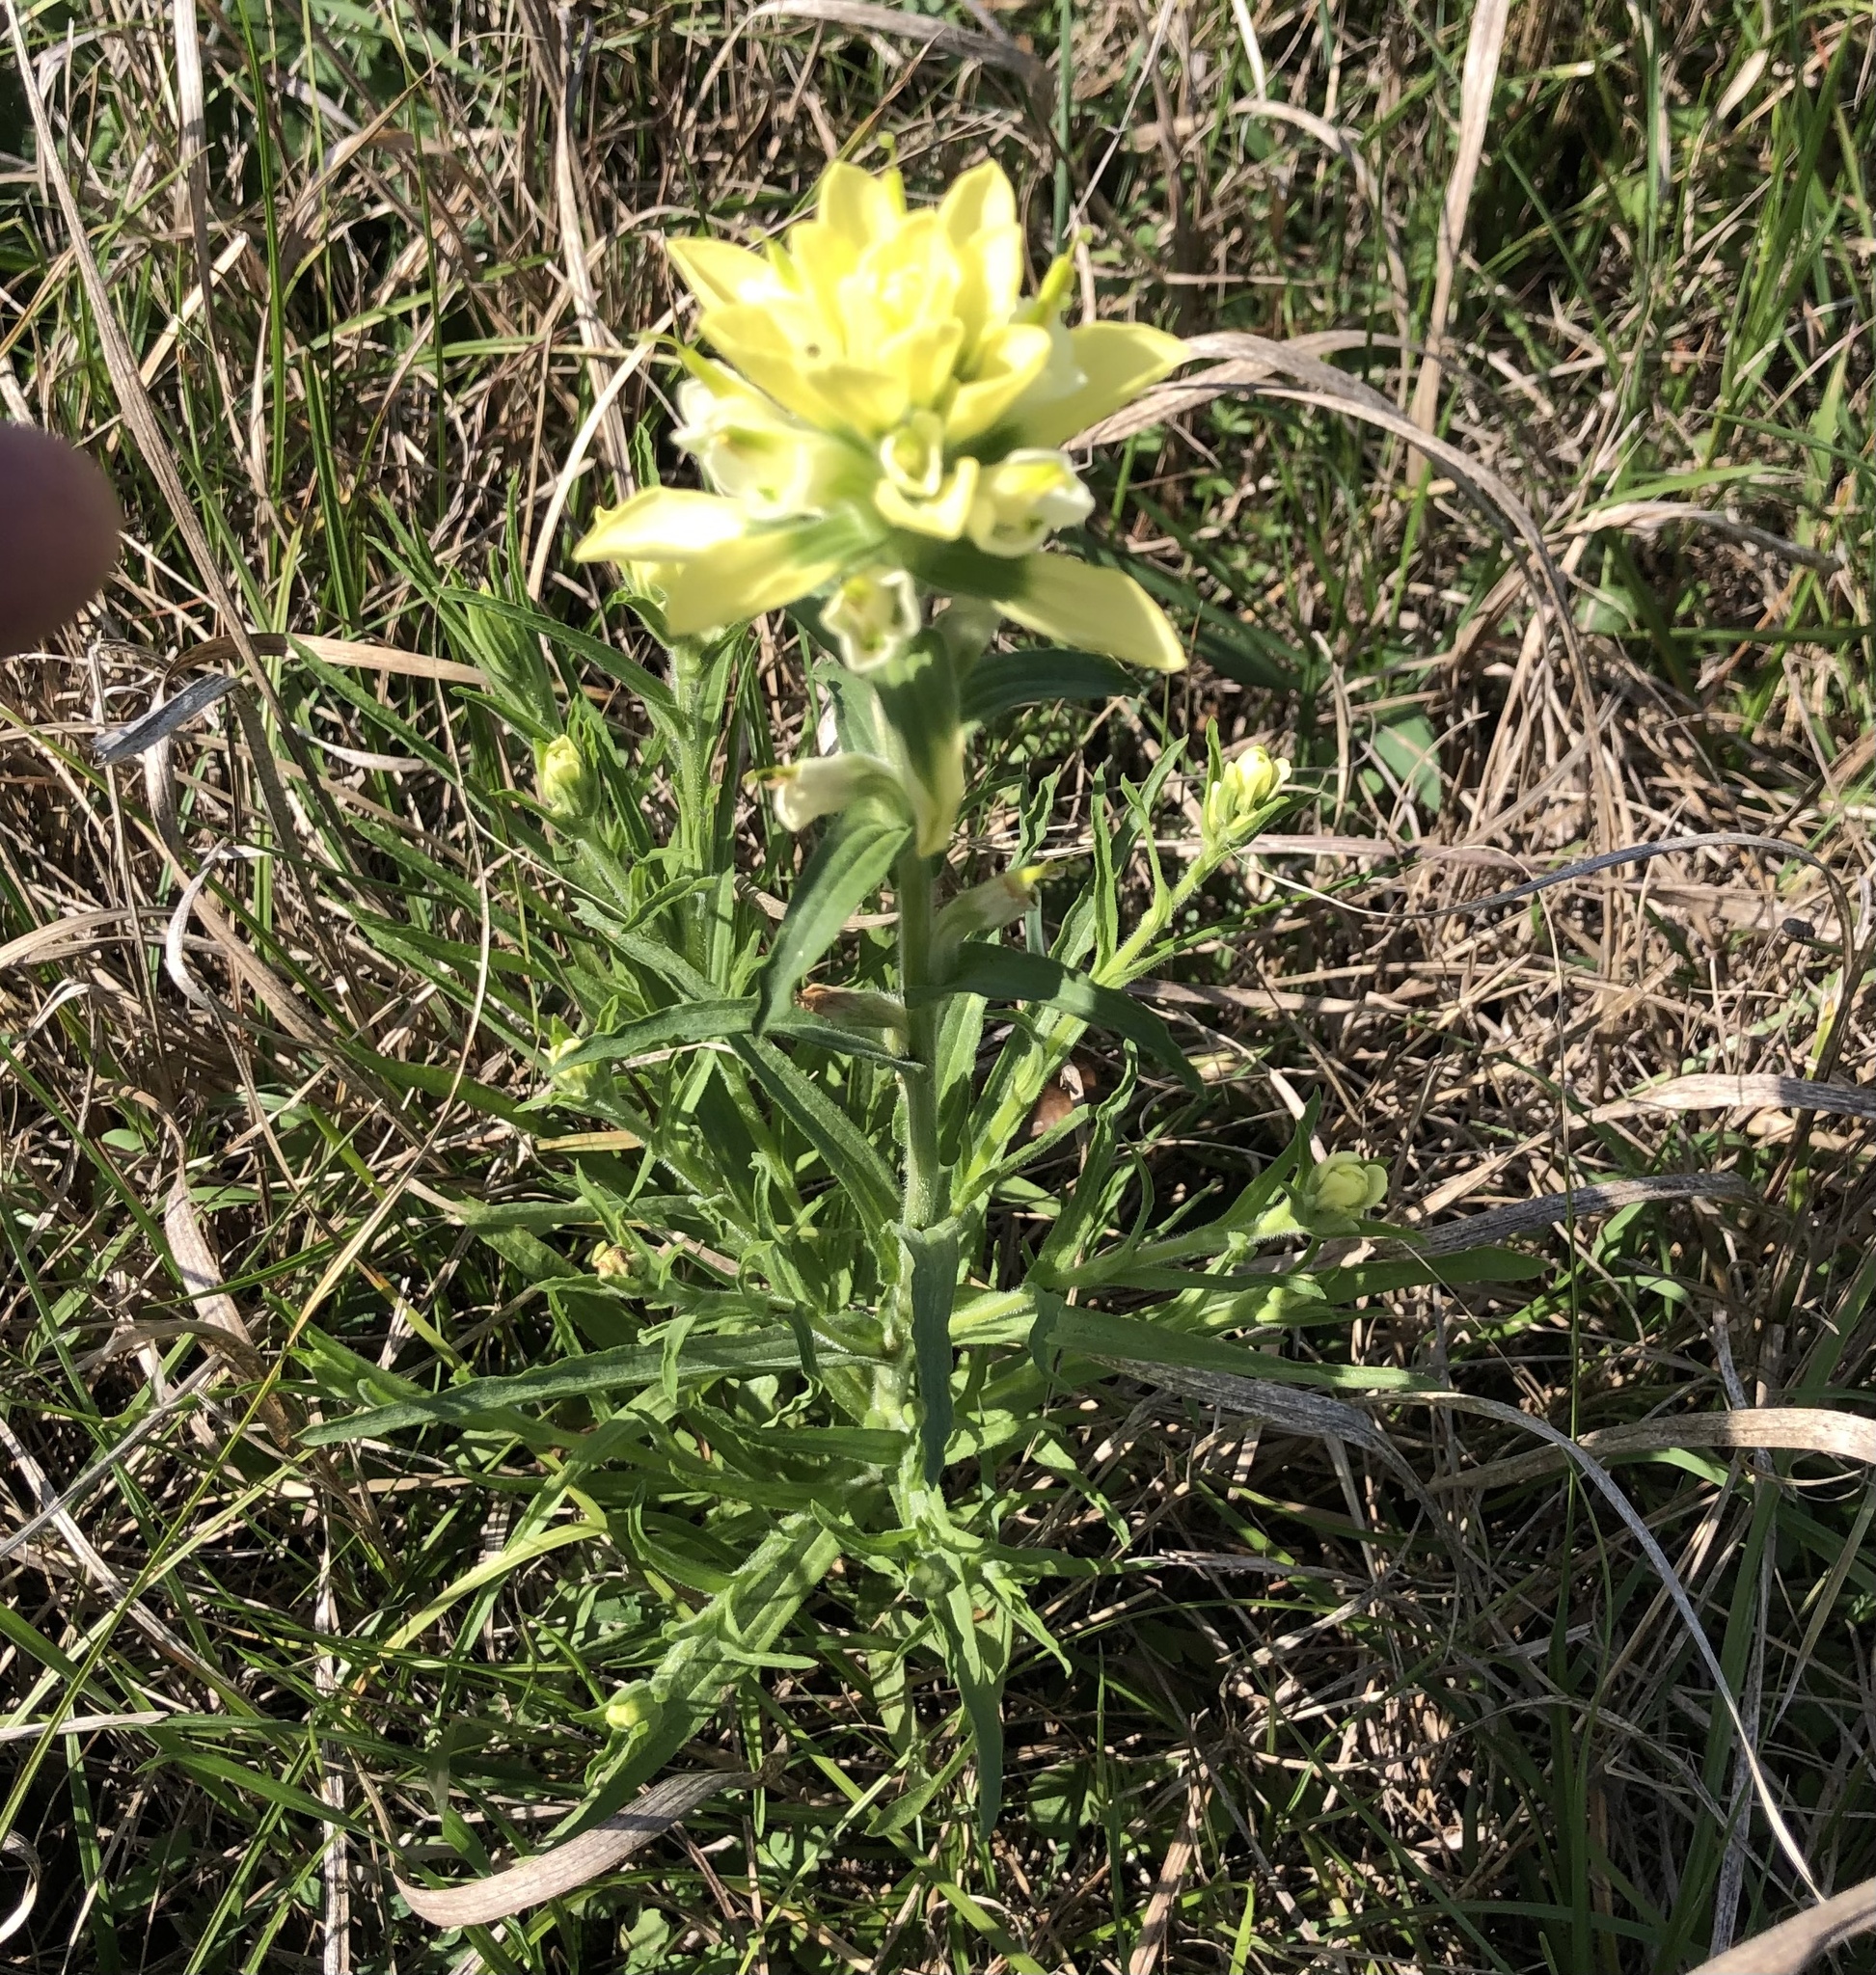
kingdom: Plantae
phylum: Tracheophyta
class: Magnoliopsida
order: Lamiales
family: Orobanchaceae
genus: Castilleja
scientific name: Castilleja indivisa
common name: Texas paintbrush
